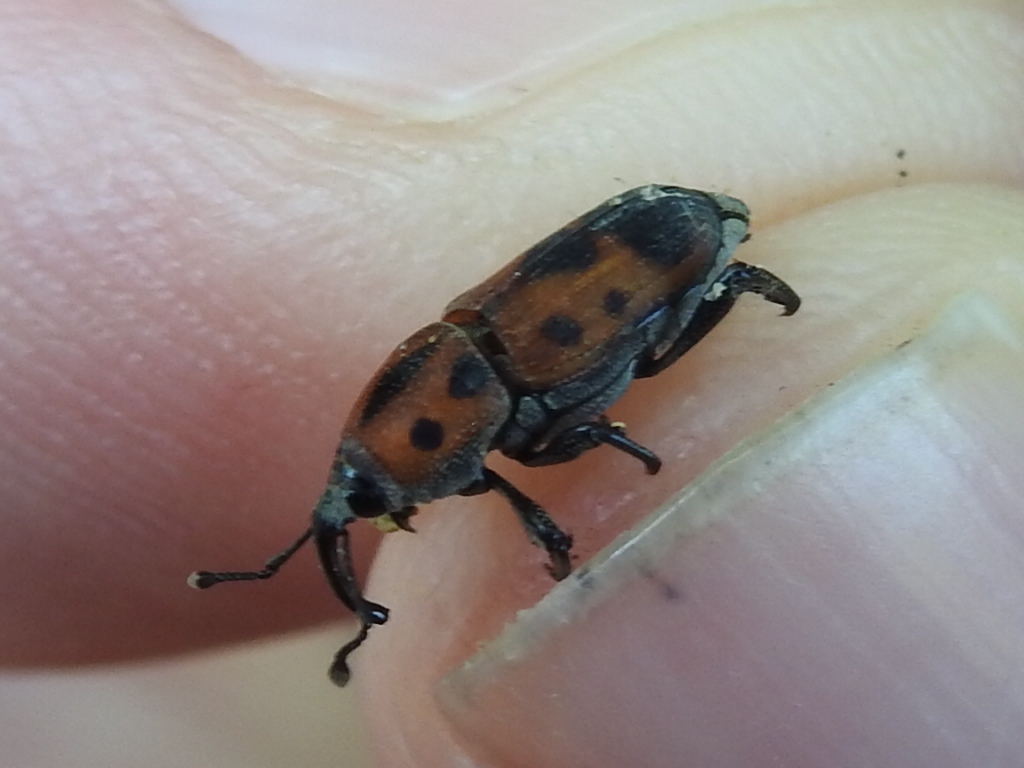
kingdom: Animalia
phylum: Arthropoda
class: Insecta
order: Coleoptera
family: Dryophthoridae
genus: Rhodobaenus
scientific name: Rhodobaenus quinquepunctatus
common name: Cocklebur weevil
